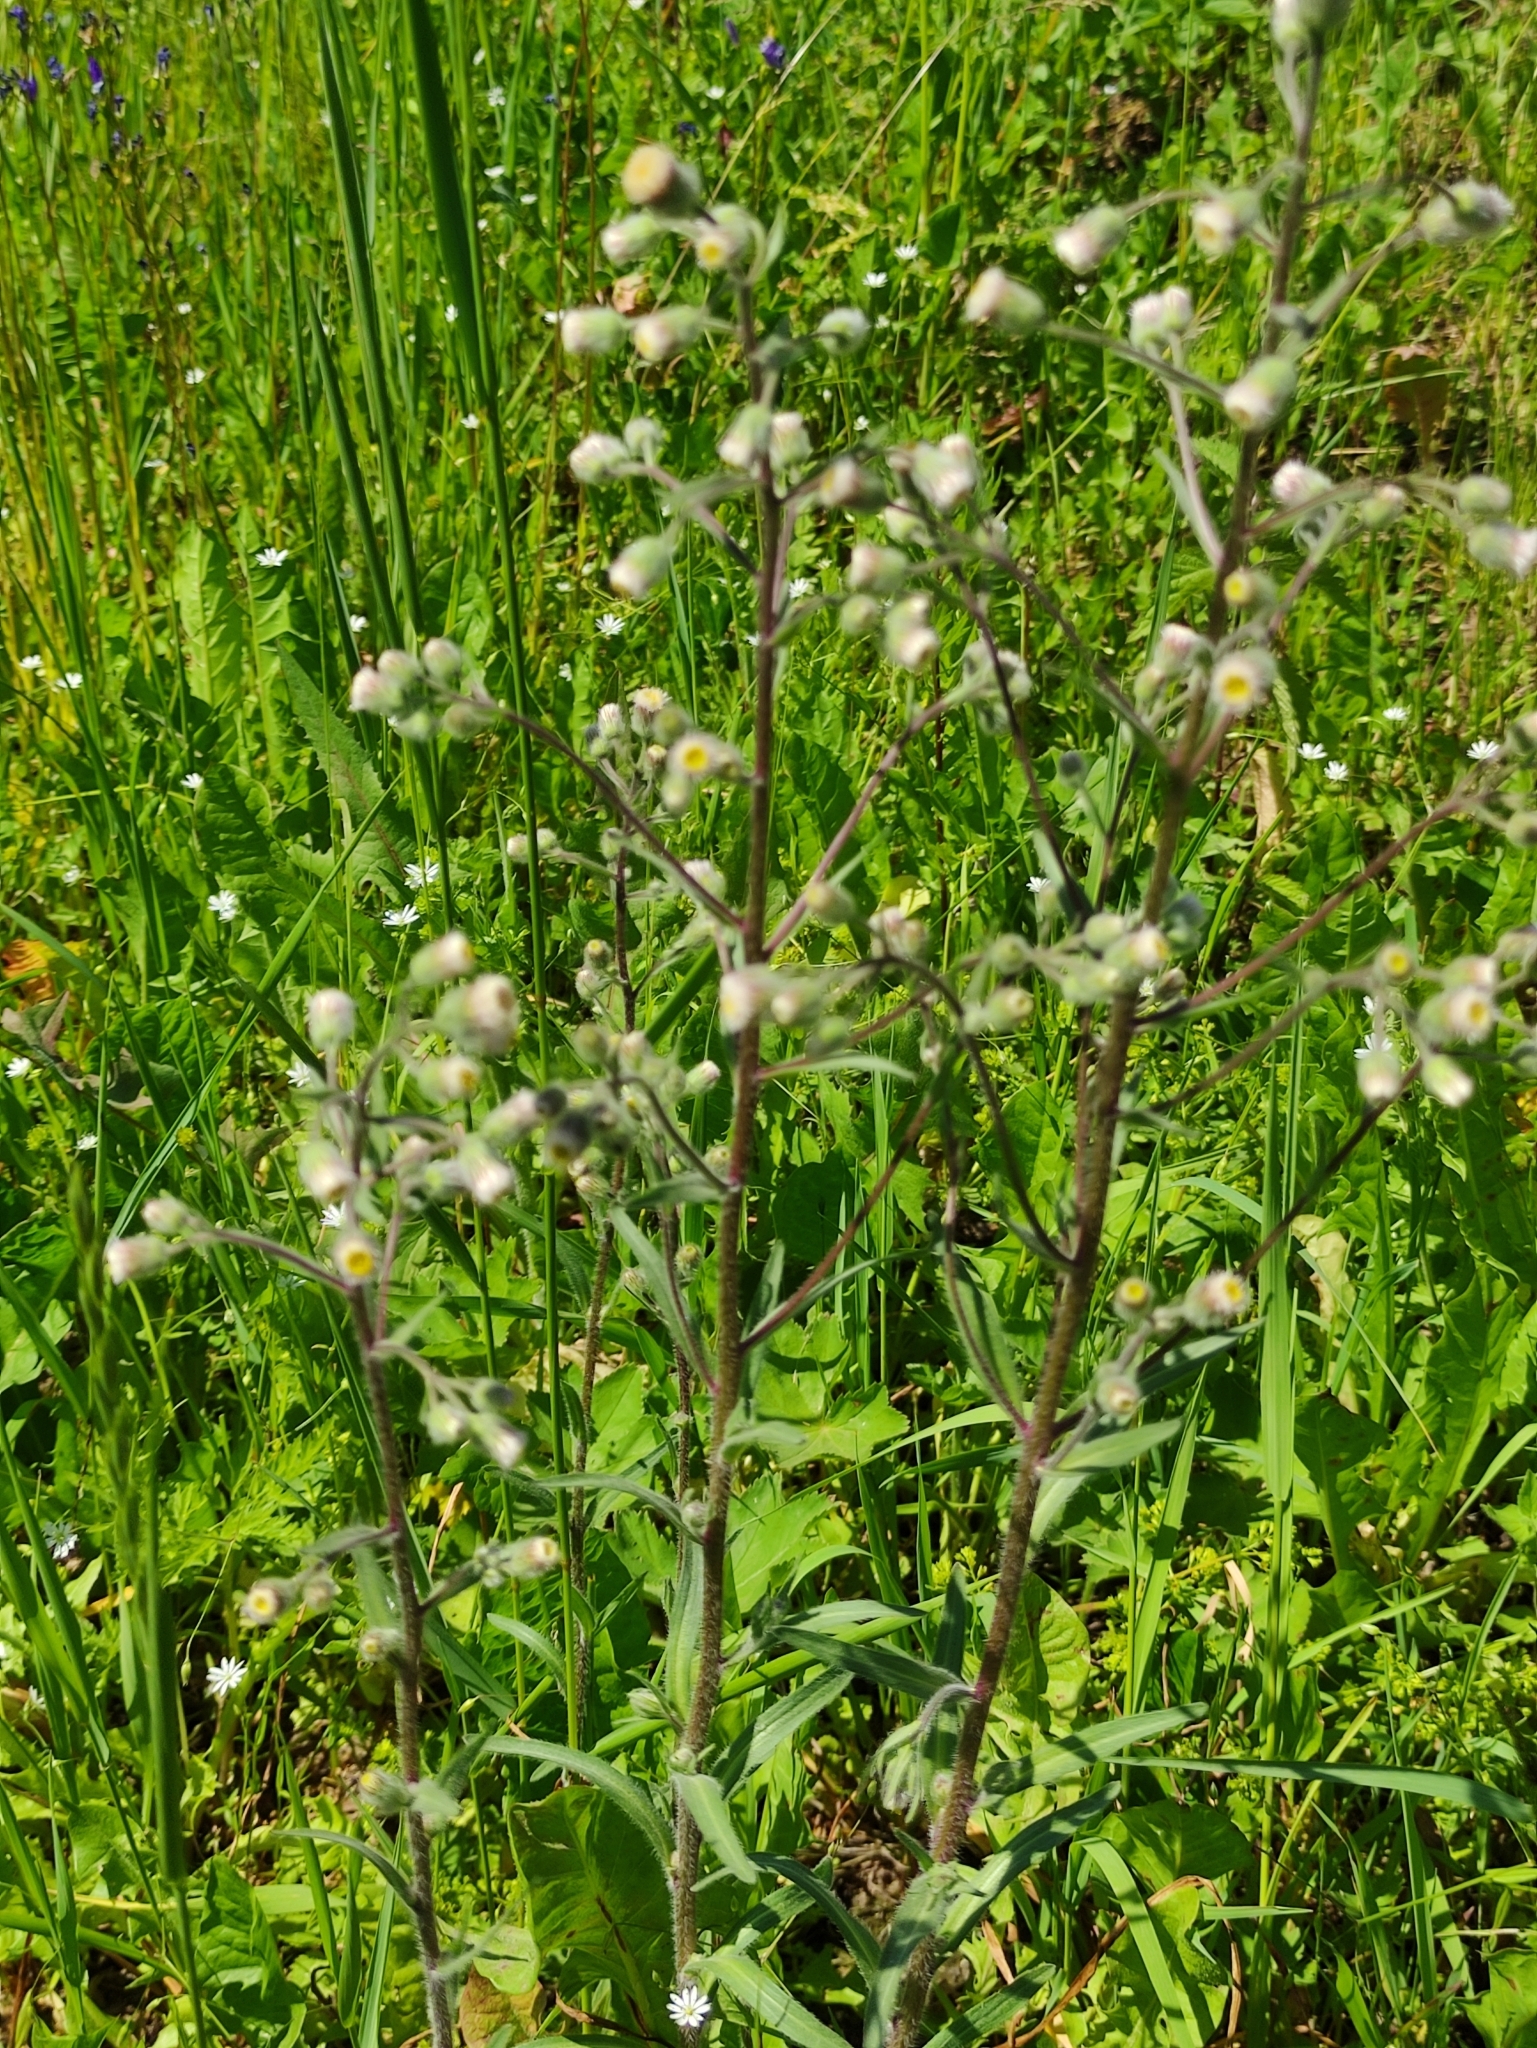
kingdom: Plantae
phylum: Tracheophyta
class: Magnoliopsida
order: Asterales
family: Asteraceae
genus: Erigeron
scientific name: Erigeron acris
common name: Blue fleabane
